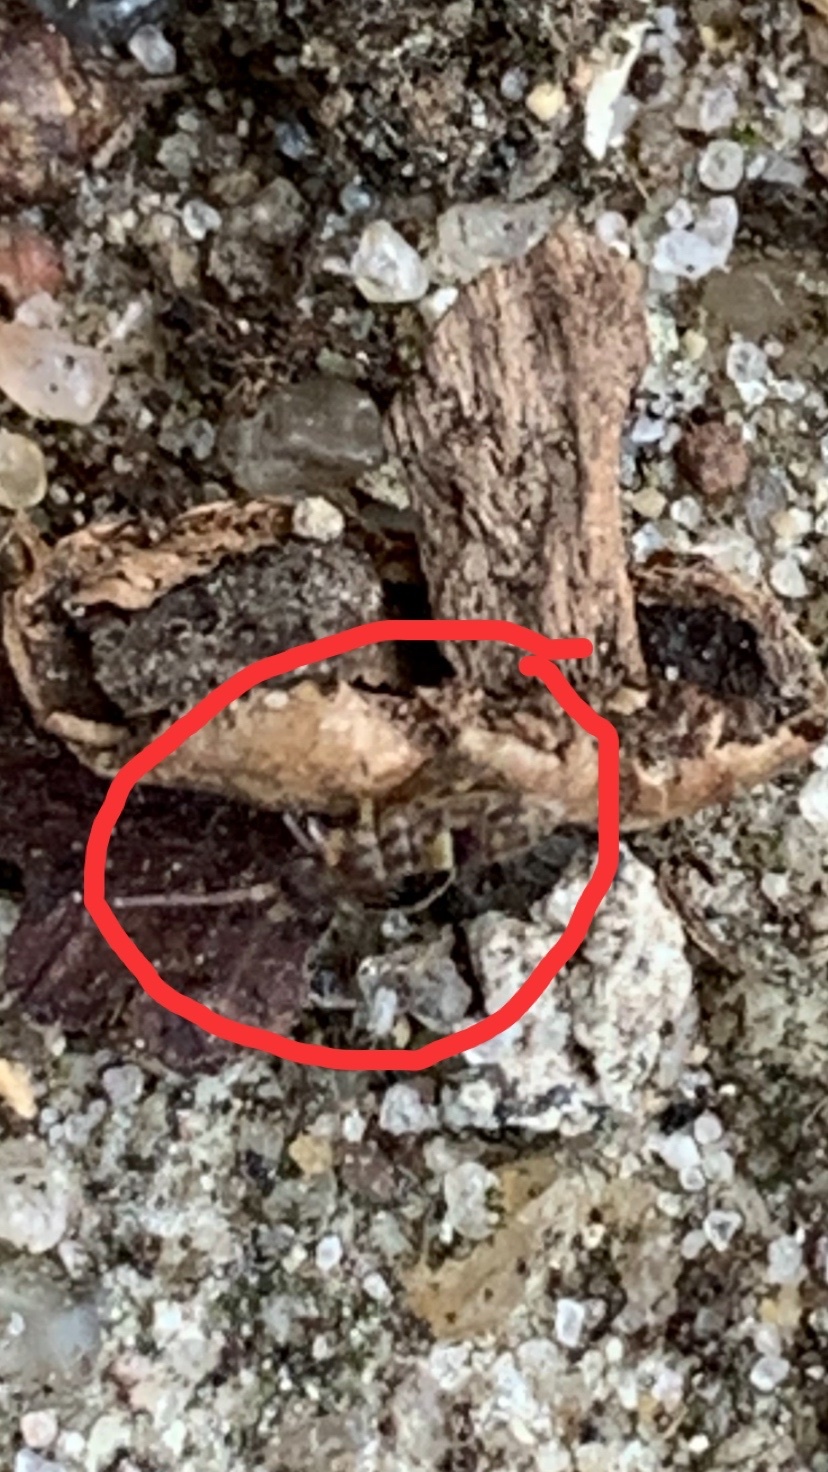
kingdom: Animalia
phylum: Arthropoda
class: Collembola
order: Entomobryomorpha
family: Orchesellidae
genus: Orchesella
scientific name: Orchesella cincta
